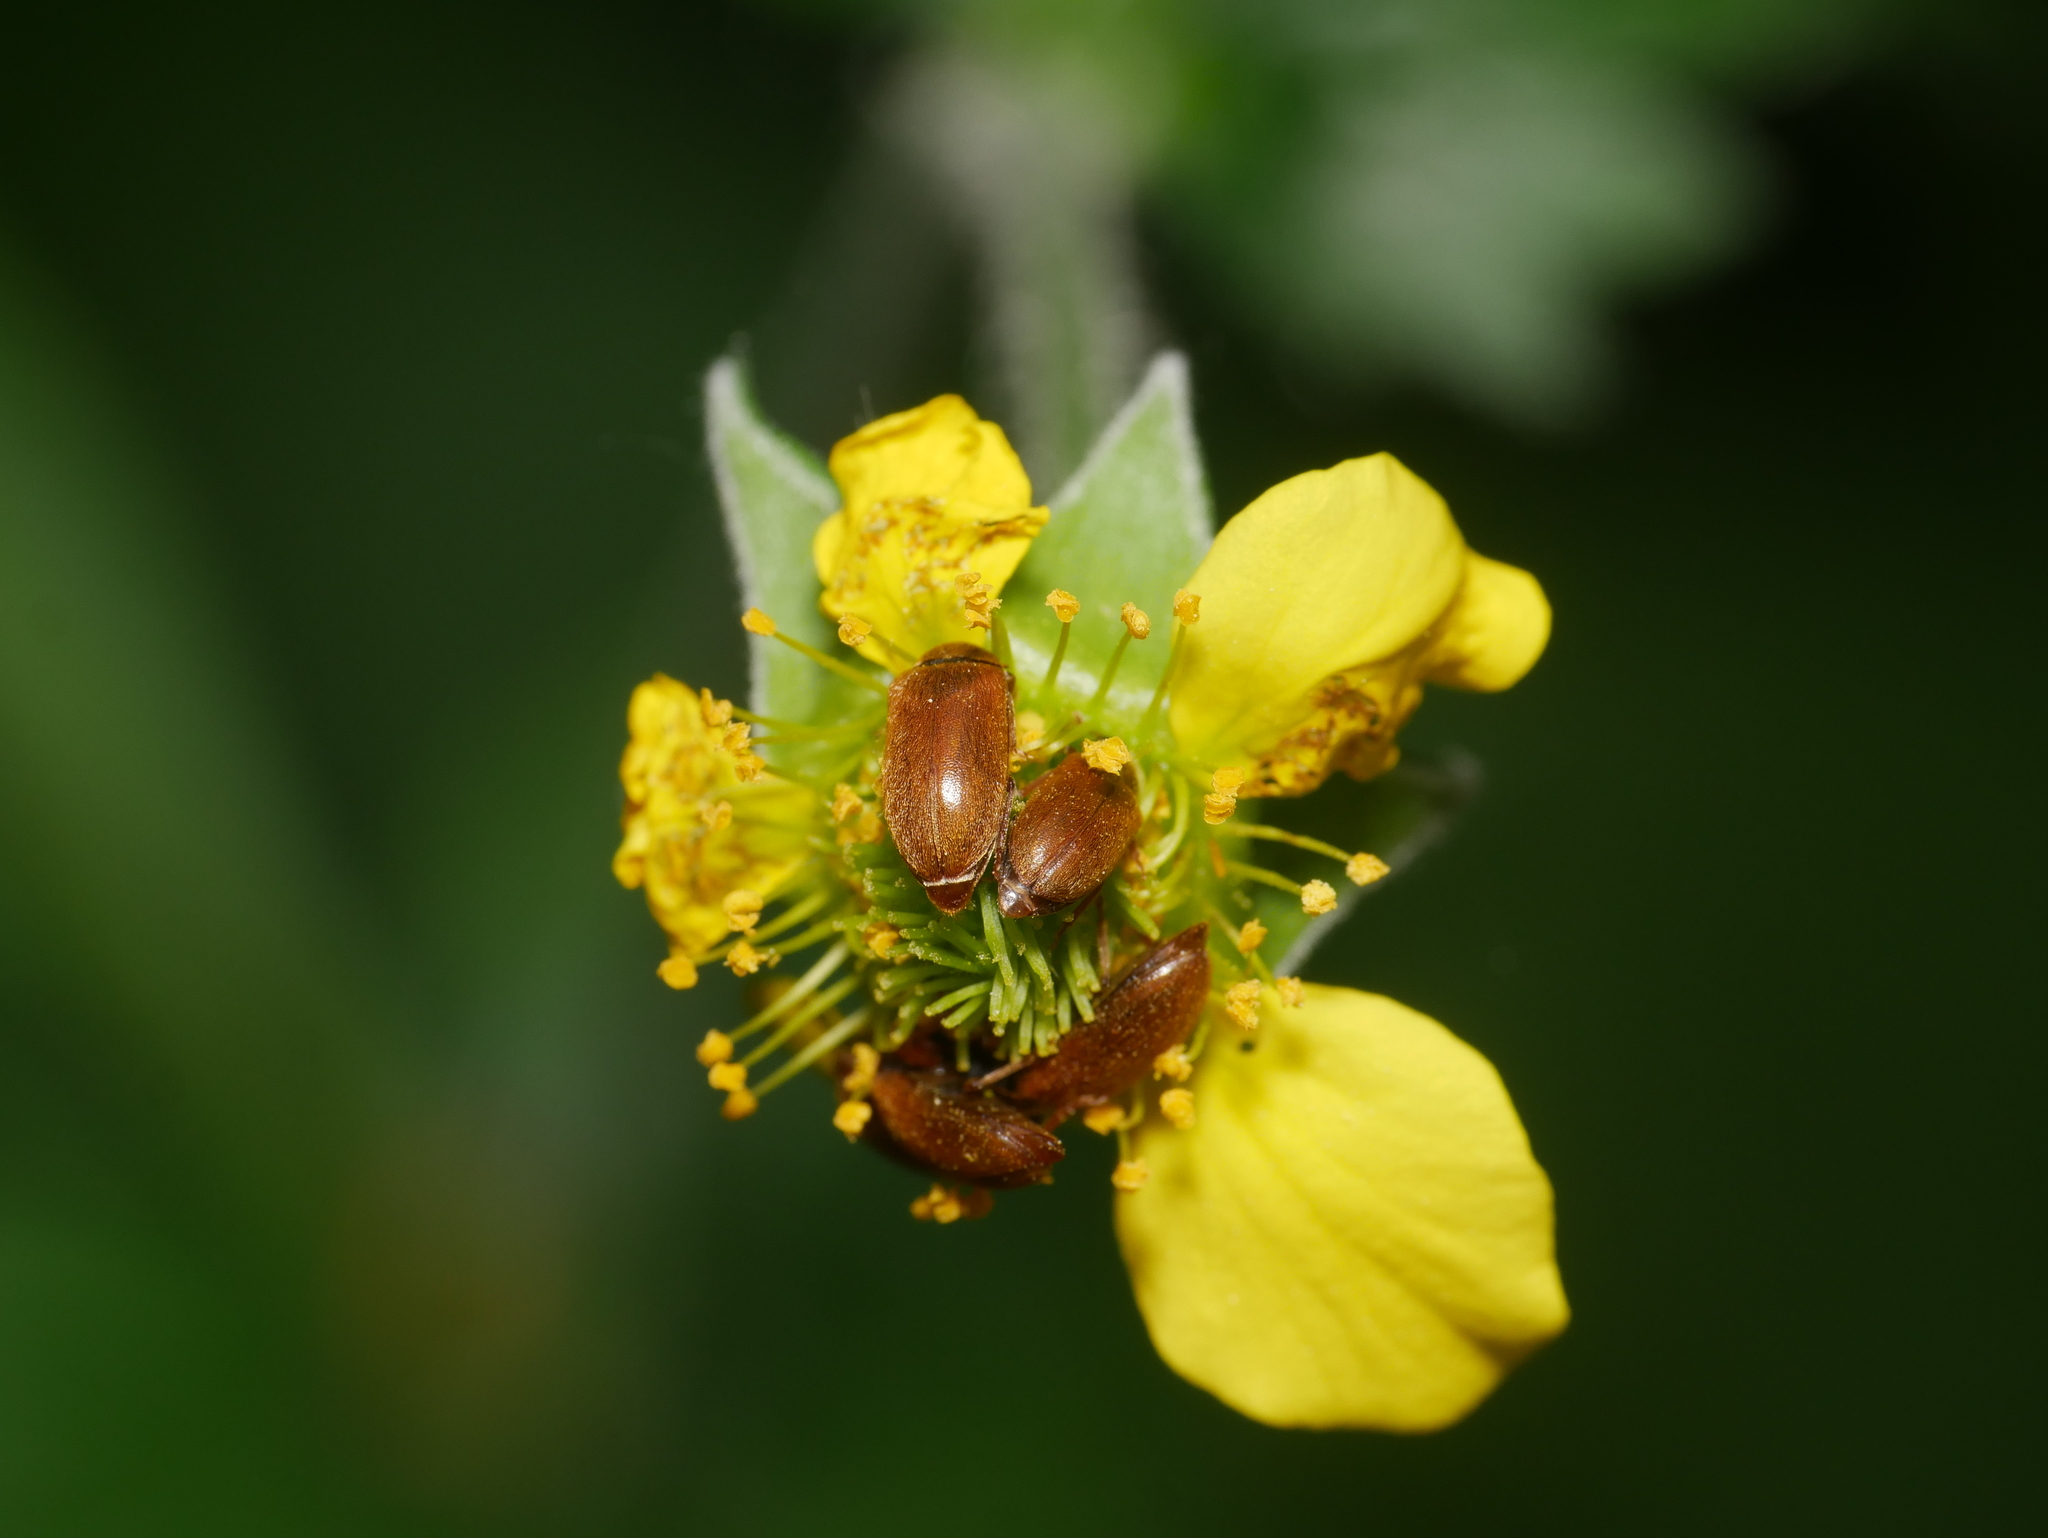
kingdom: Animalia
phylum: Arthropoda
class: Insecta
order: Coleoptera
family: Byturidae
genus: Byturus
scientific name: Byturus ochraceus
